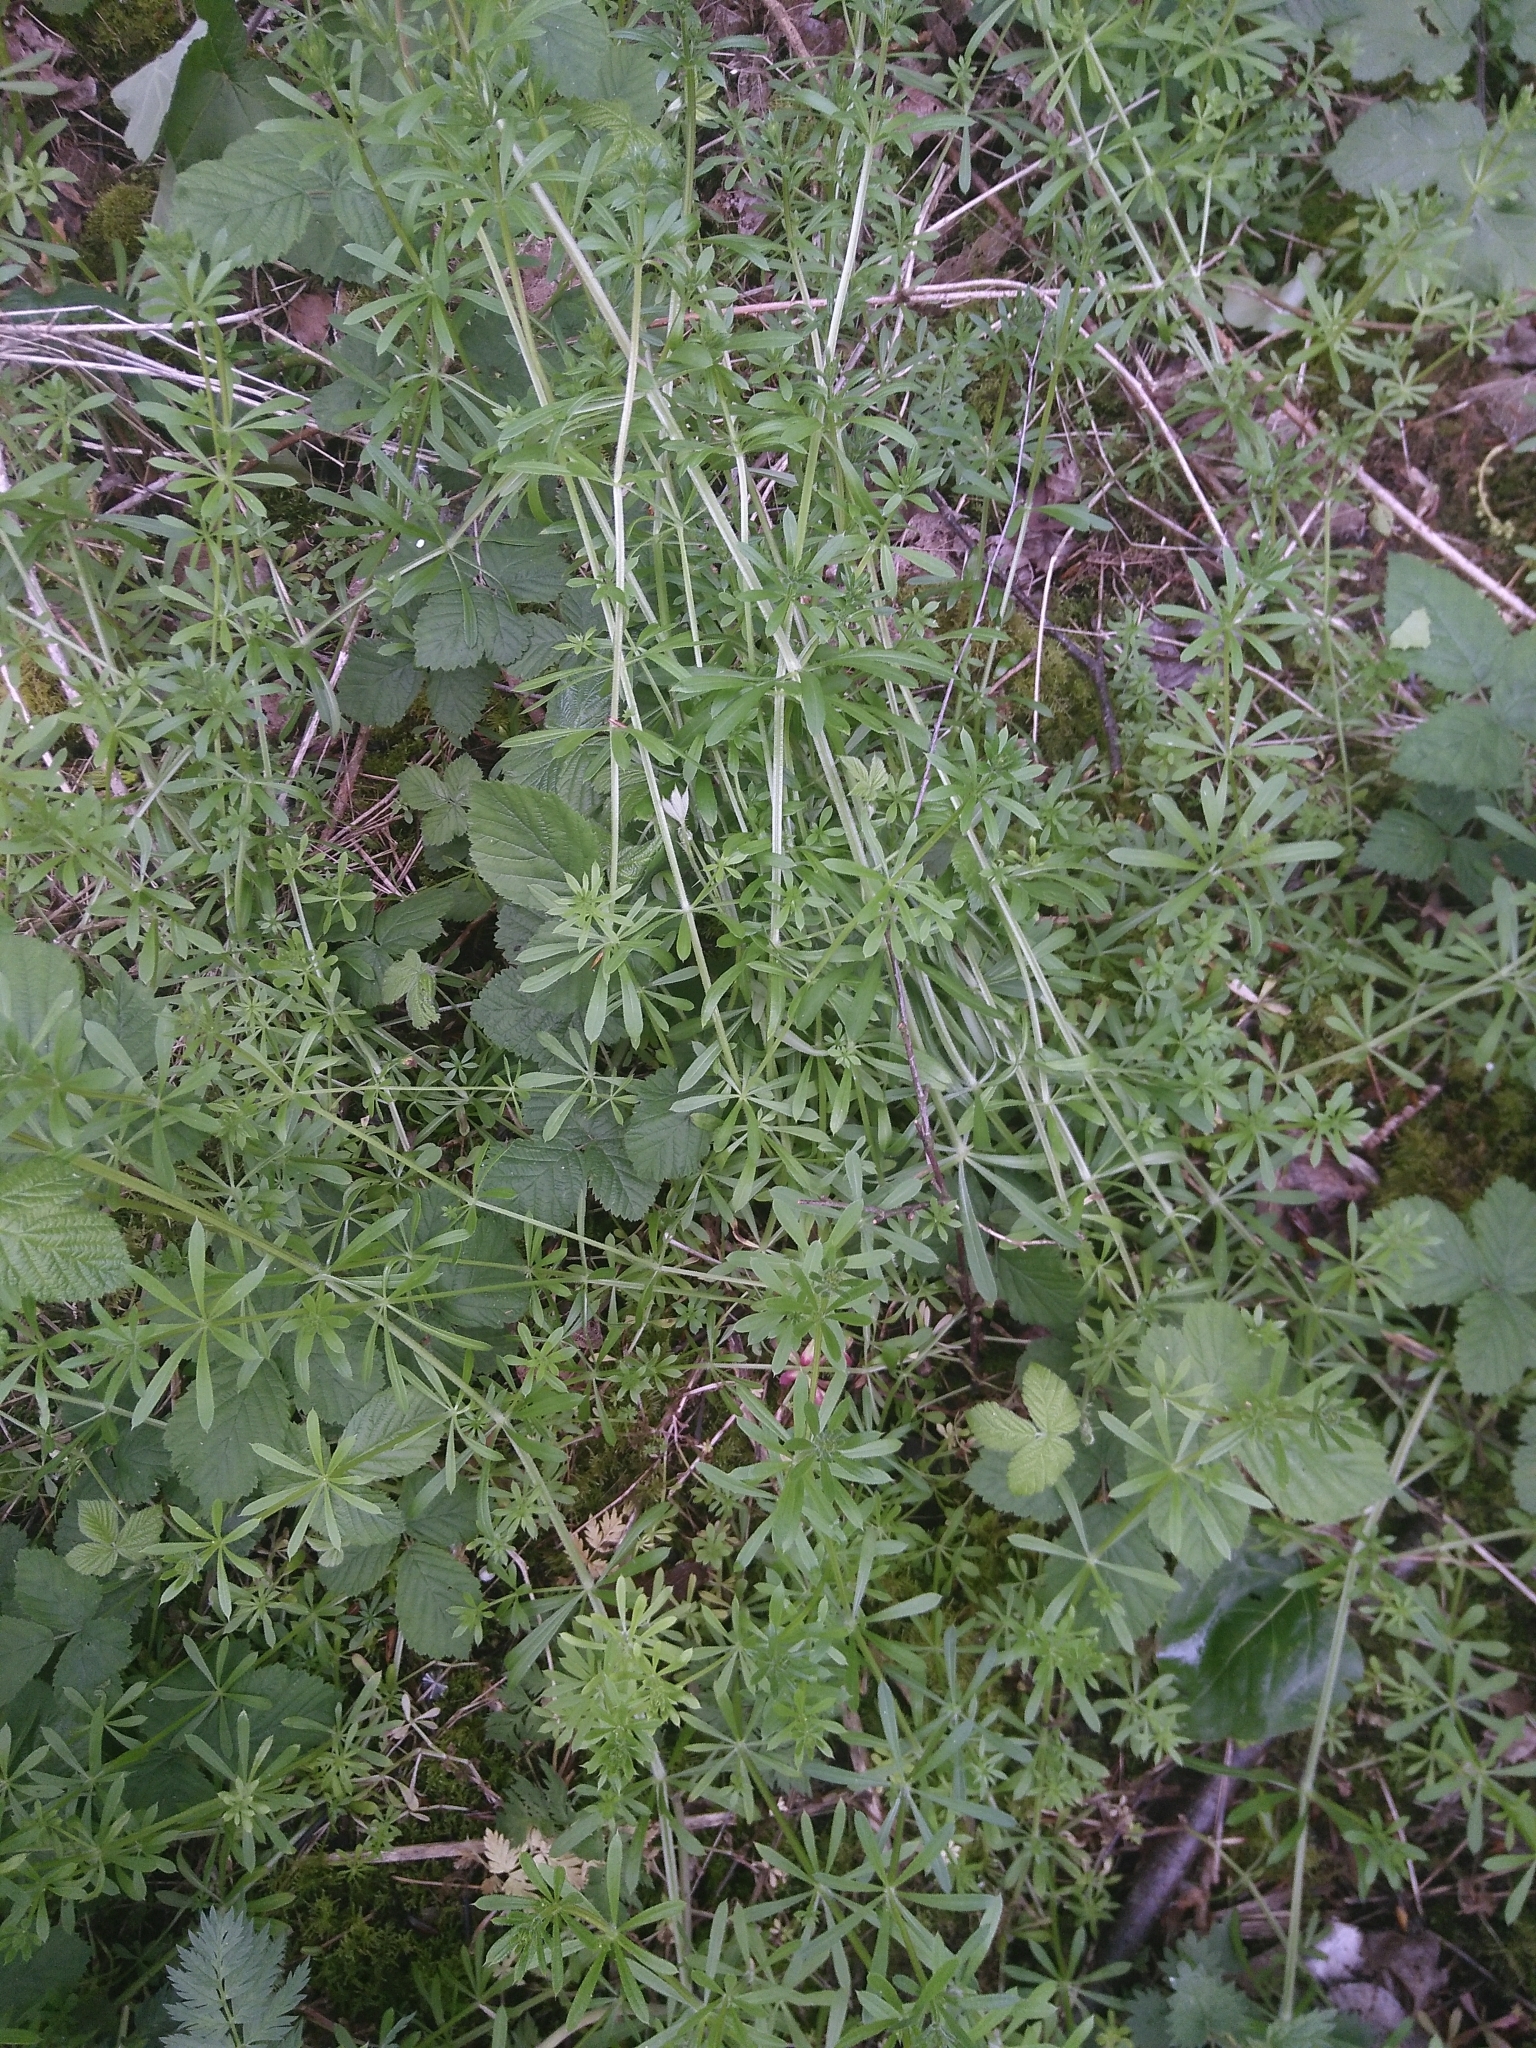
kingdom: Plantae
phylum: Tracheophyta
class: Magnoliopsida
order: Gentianales
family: Rubiaceae
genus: Galium
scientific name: Galium aparine
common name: Cleavers
